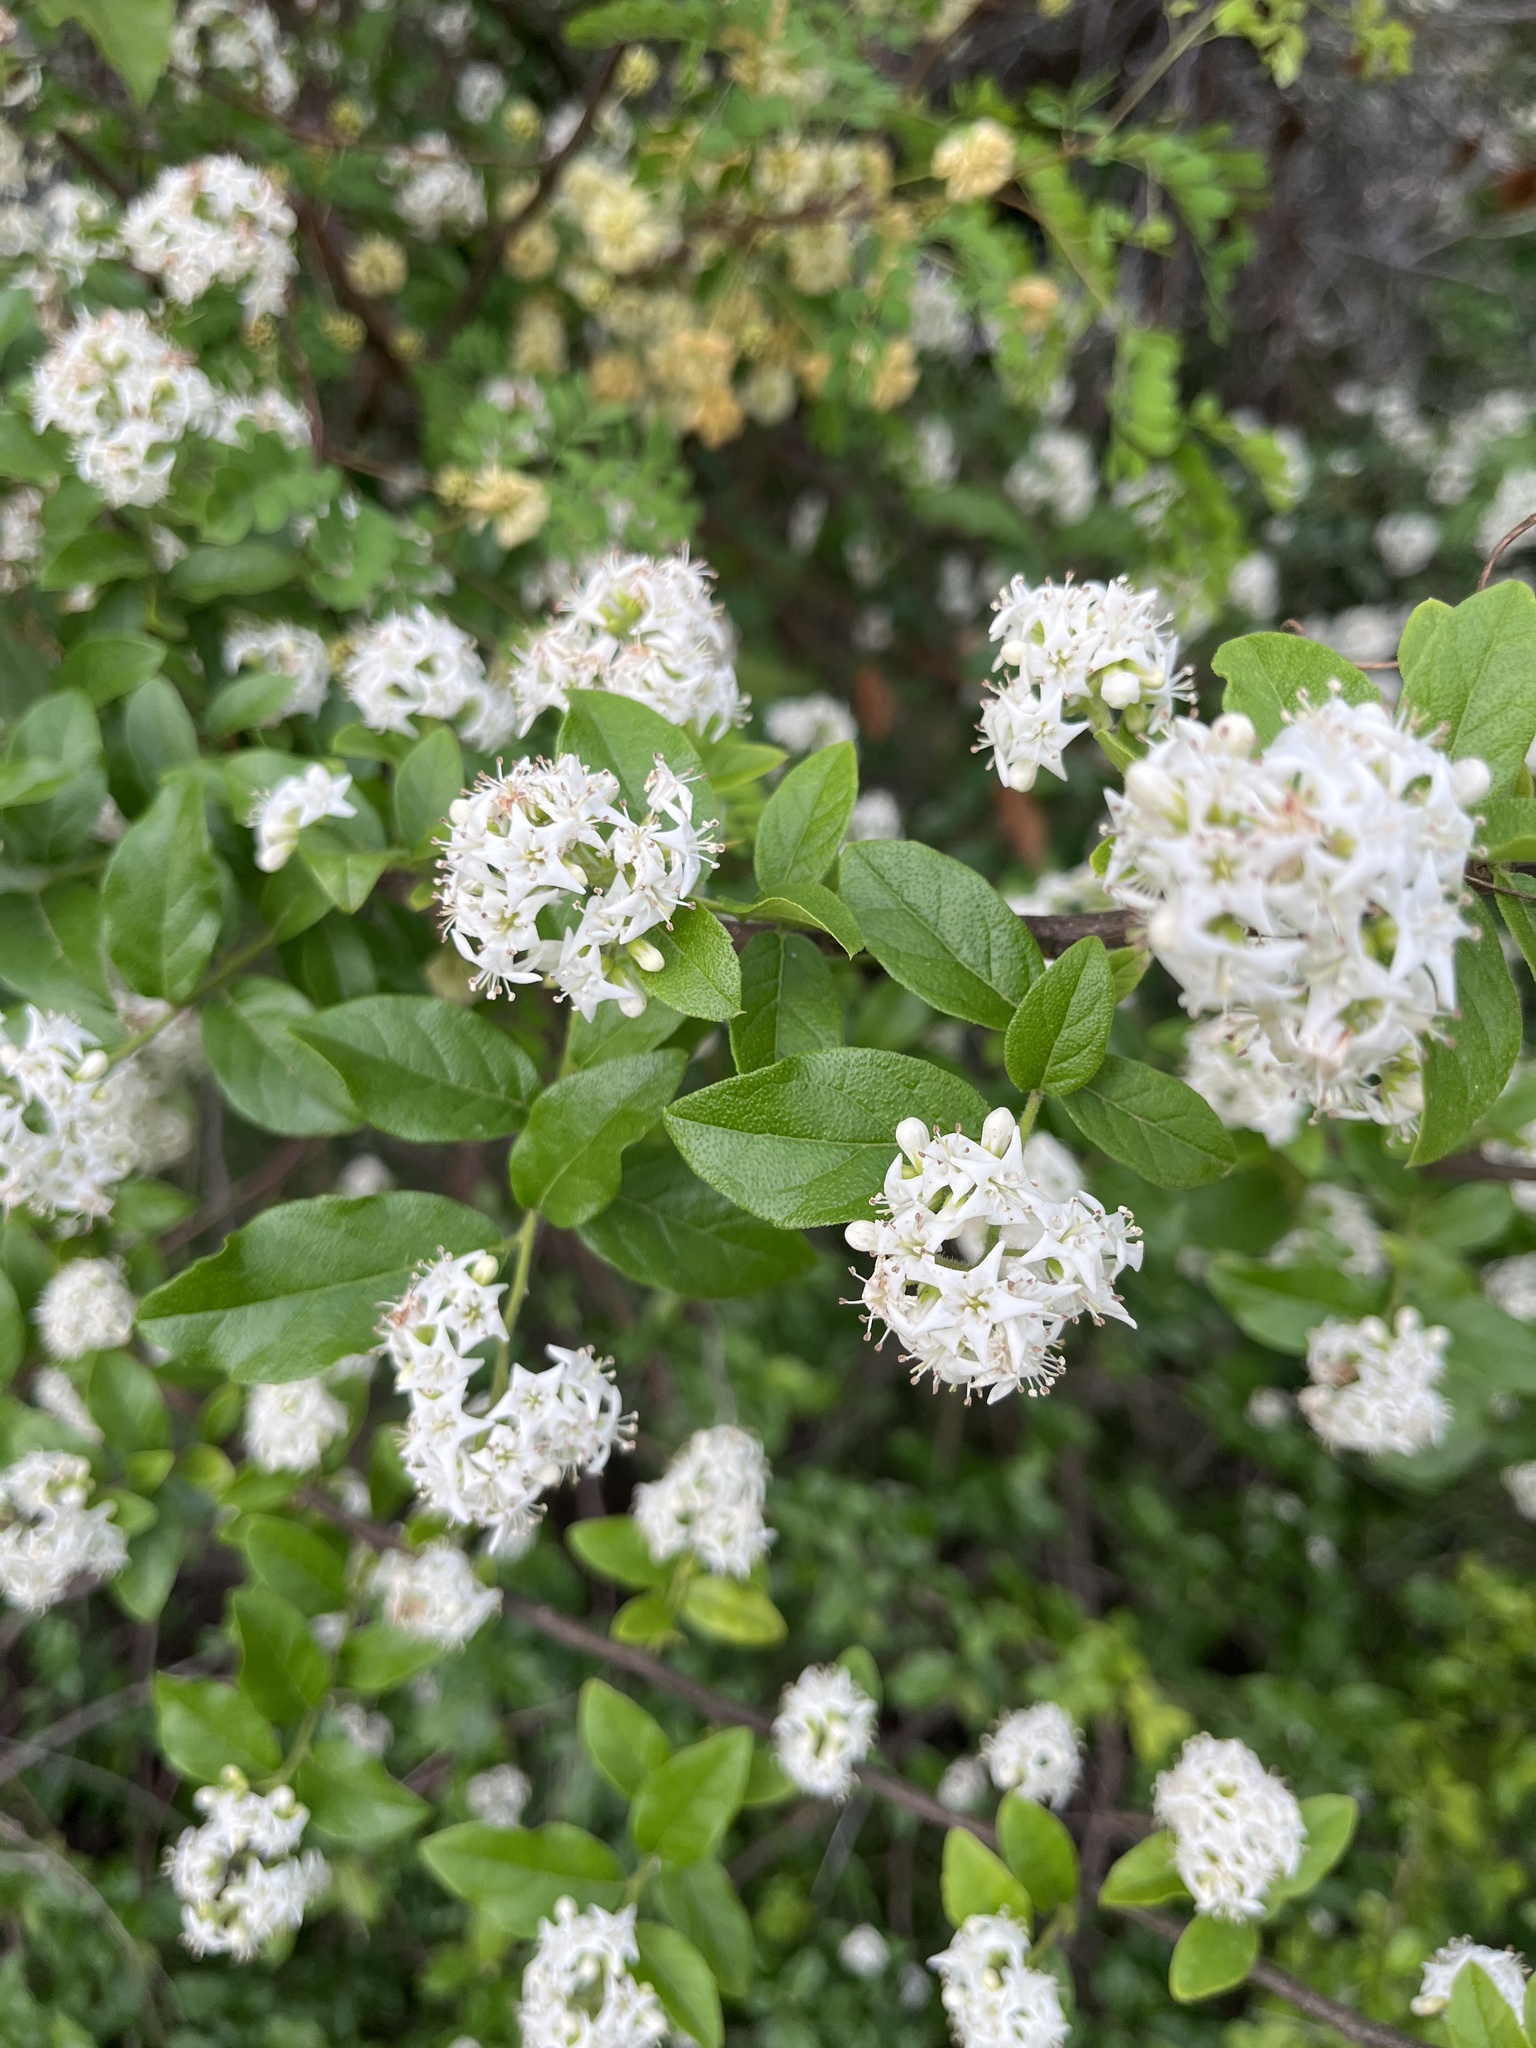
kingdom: Plantae
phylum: Tracheophyta
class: Magnoliopsida
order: Boraginales
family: Ehretiaceae
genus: Ehretia
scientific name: Ehretia anacua
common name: Sugarberry
